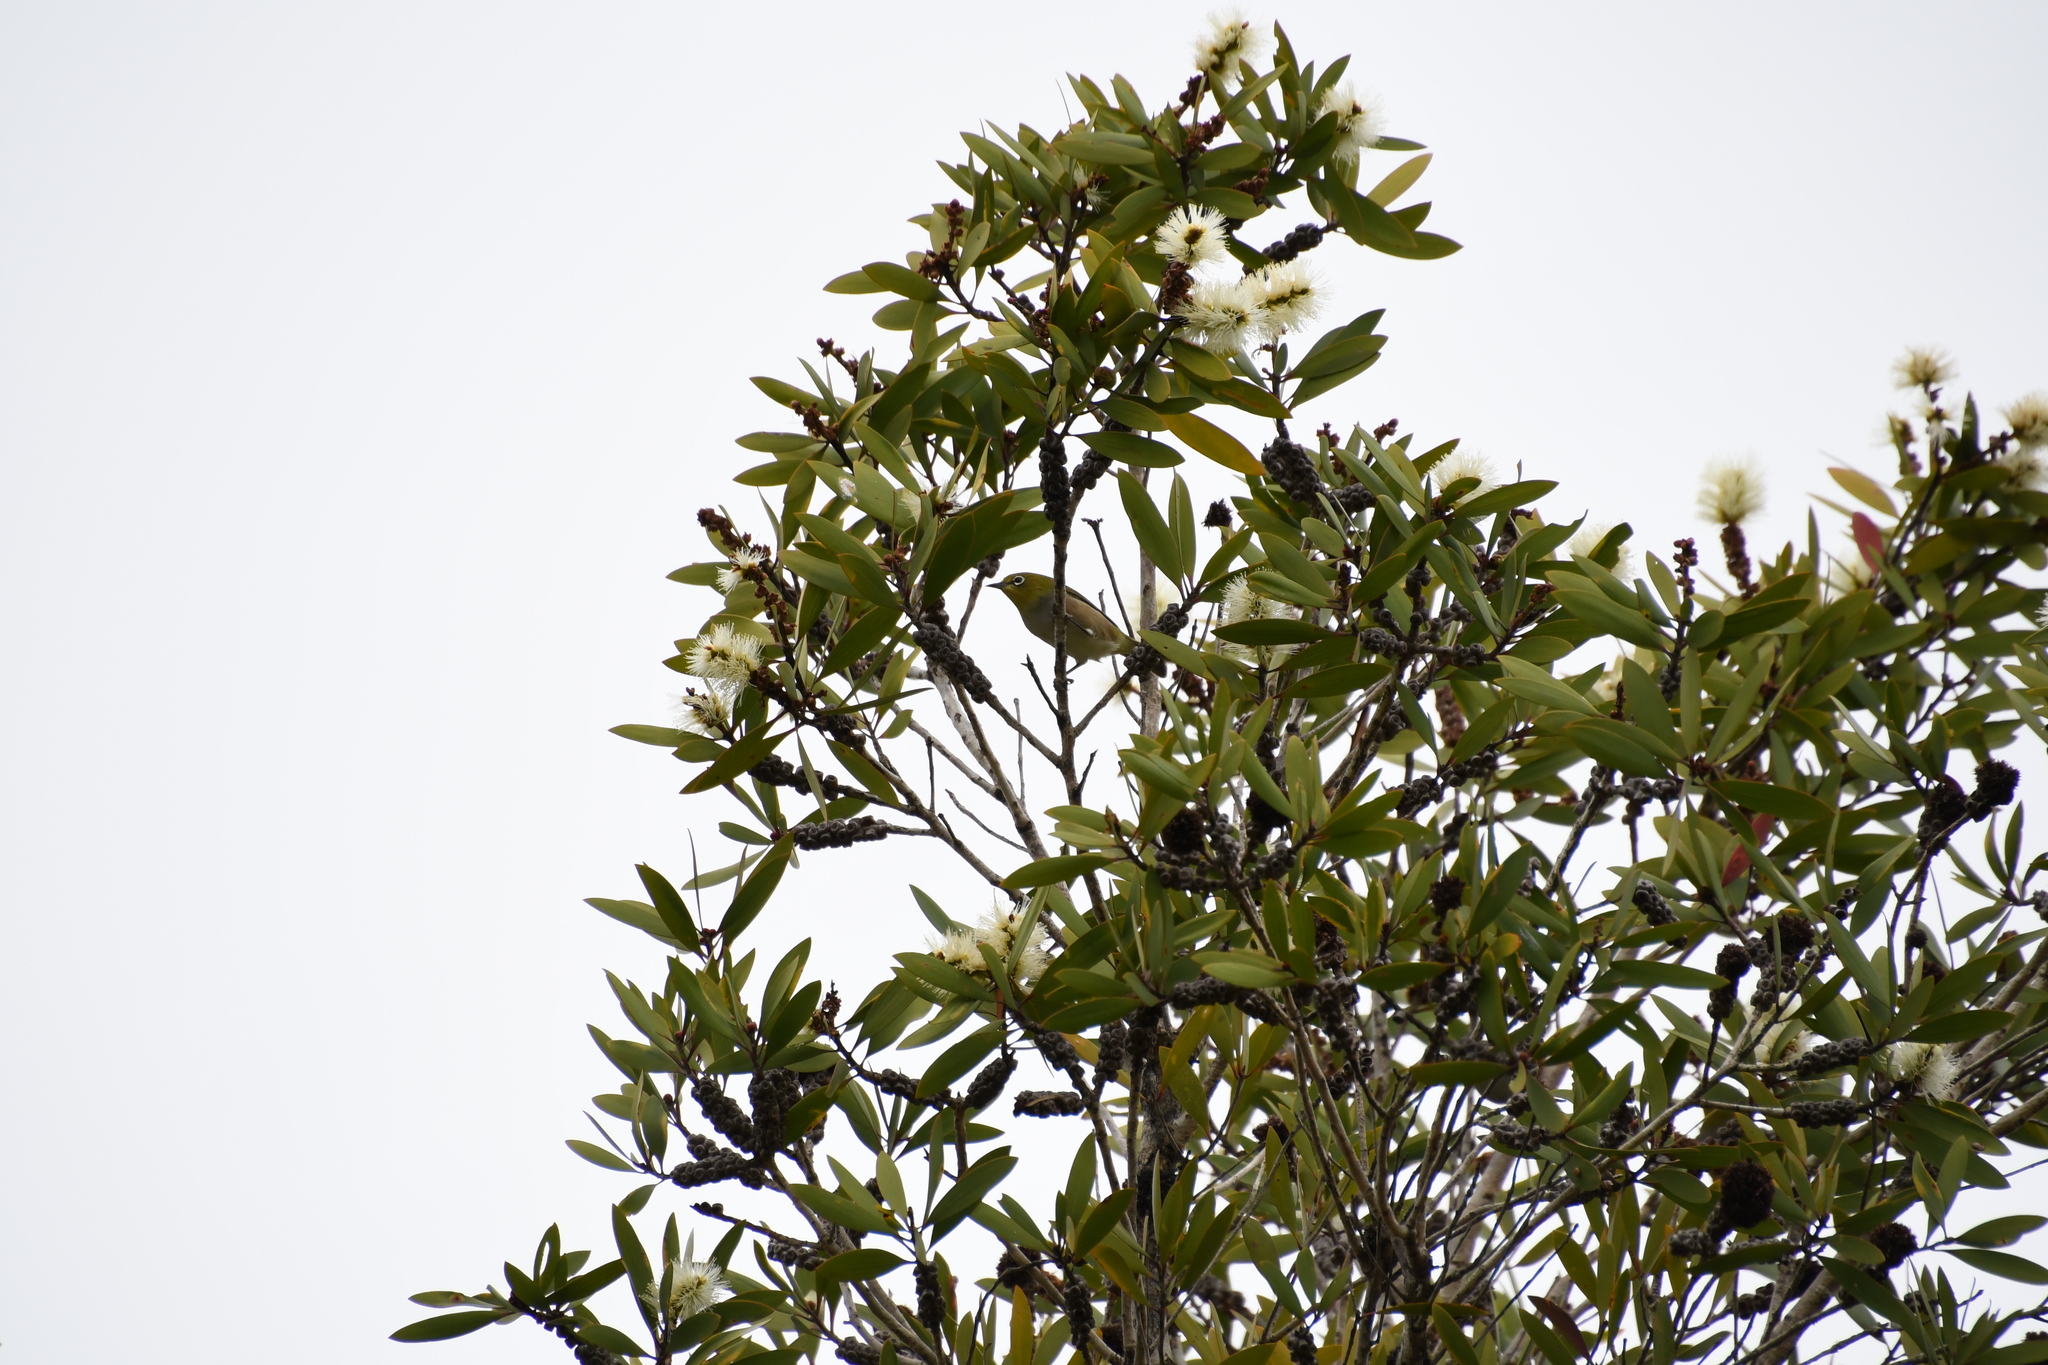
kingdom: Animalia
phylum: Chordata
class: Aves
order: Passeriformes
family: Zosteropidae
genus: Zosterops
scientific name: Zosterops lateralis
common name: Silvereye
